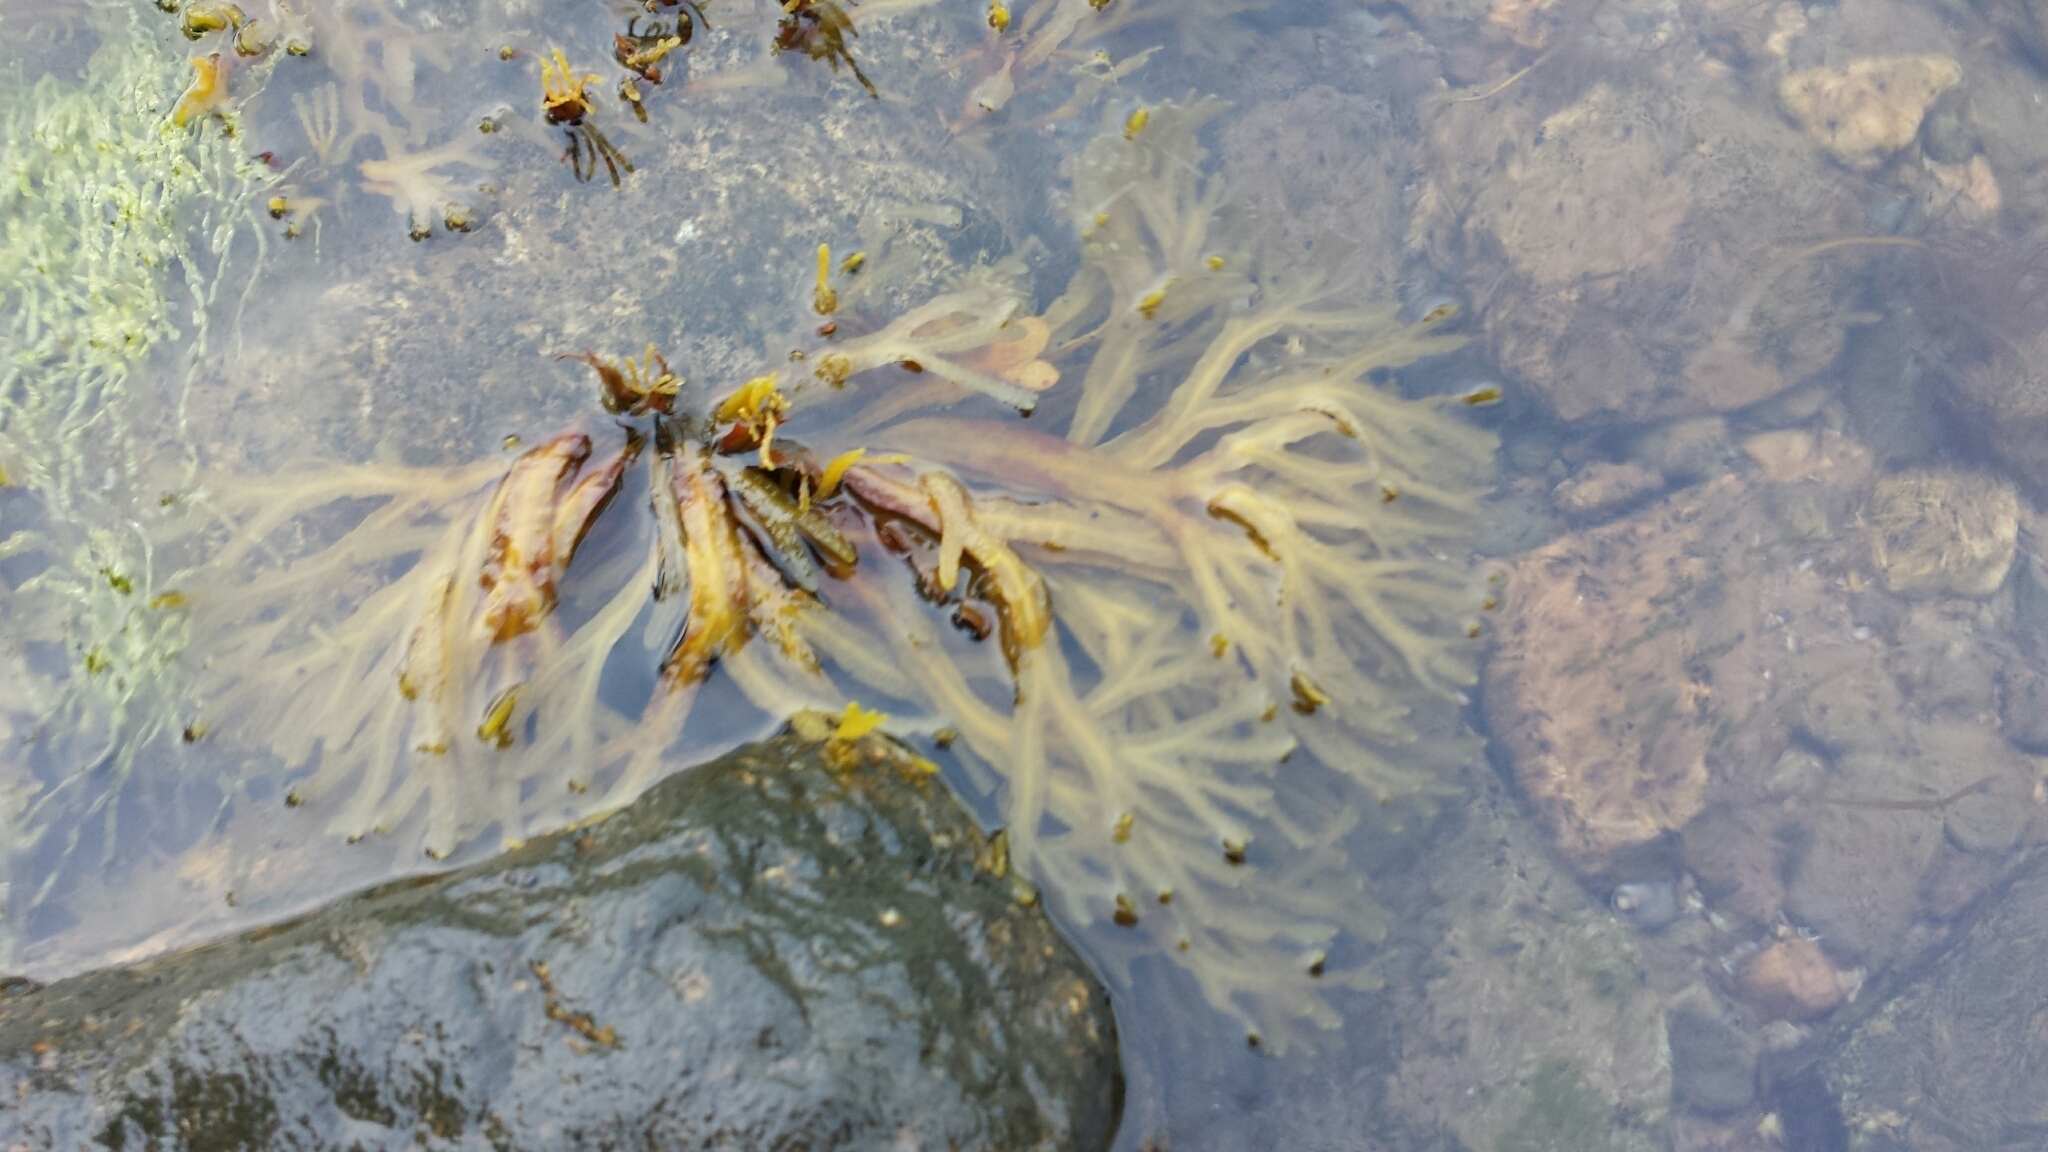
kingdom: Chromista
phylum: Ochrophyta
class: Phaeophyceae
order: Fucales
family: Fucaceae
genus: Fucus
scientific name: Fucus distichus
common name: Rockweed
